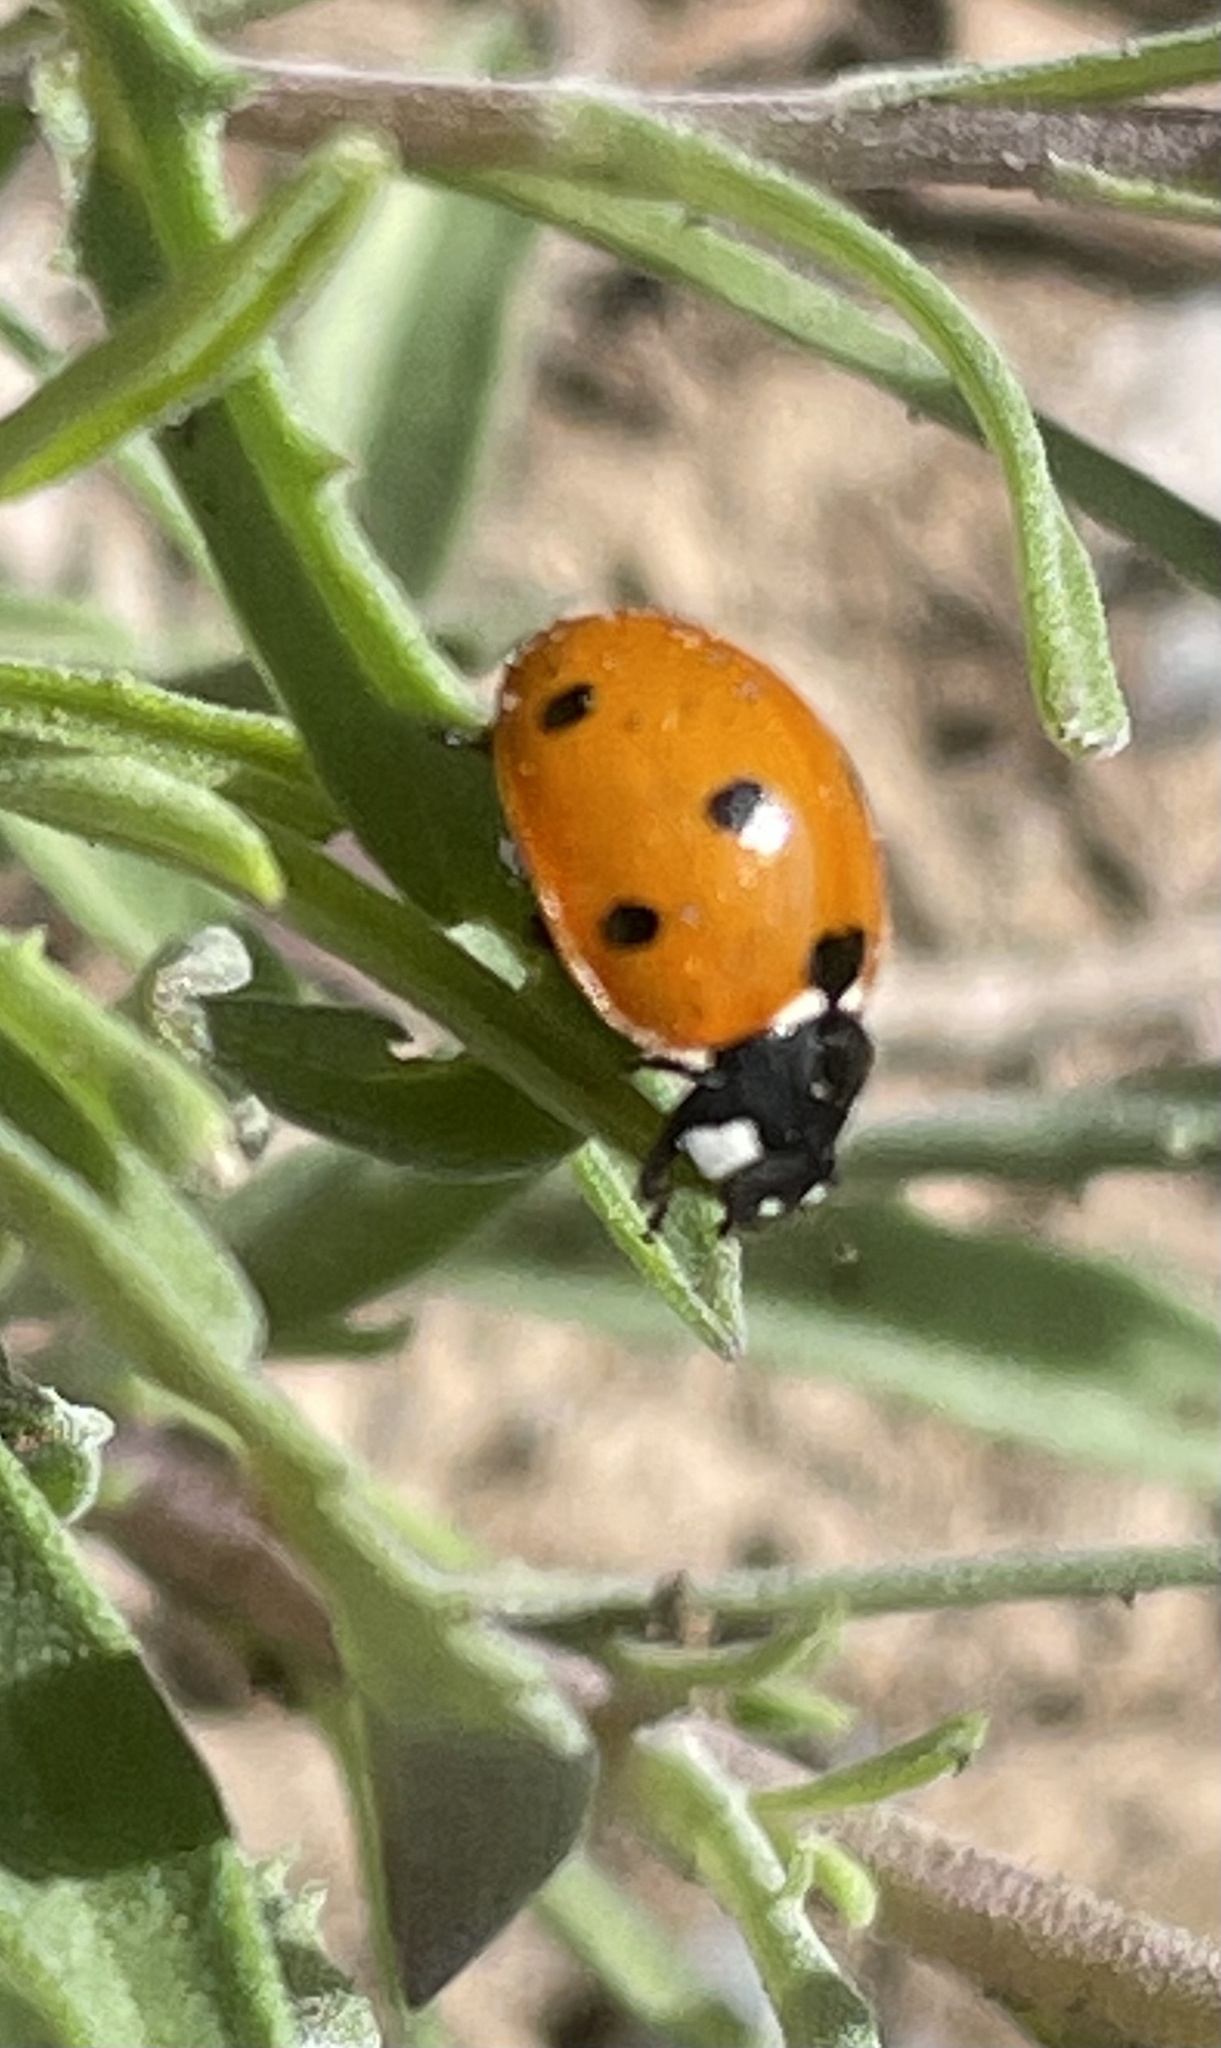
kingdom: Animalia
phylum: Arthropoda
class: Insecta
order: Coleoptera
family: Coccinellidae
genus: Coccinella
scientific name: Coccinella septempunctata
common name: Sevenspotted lady beetle
